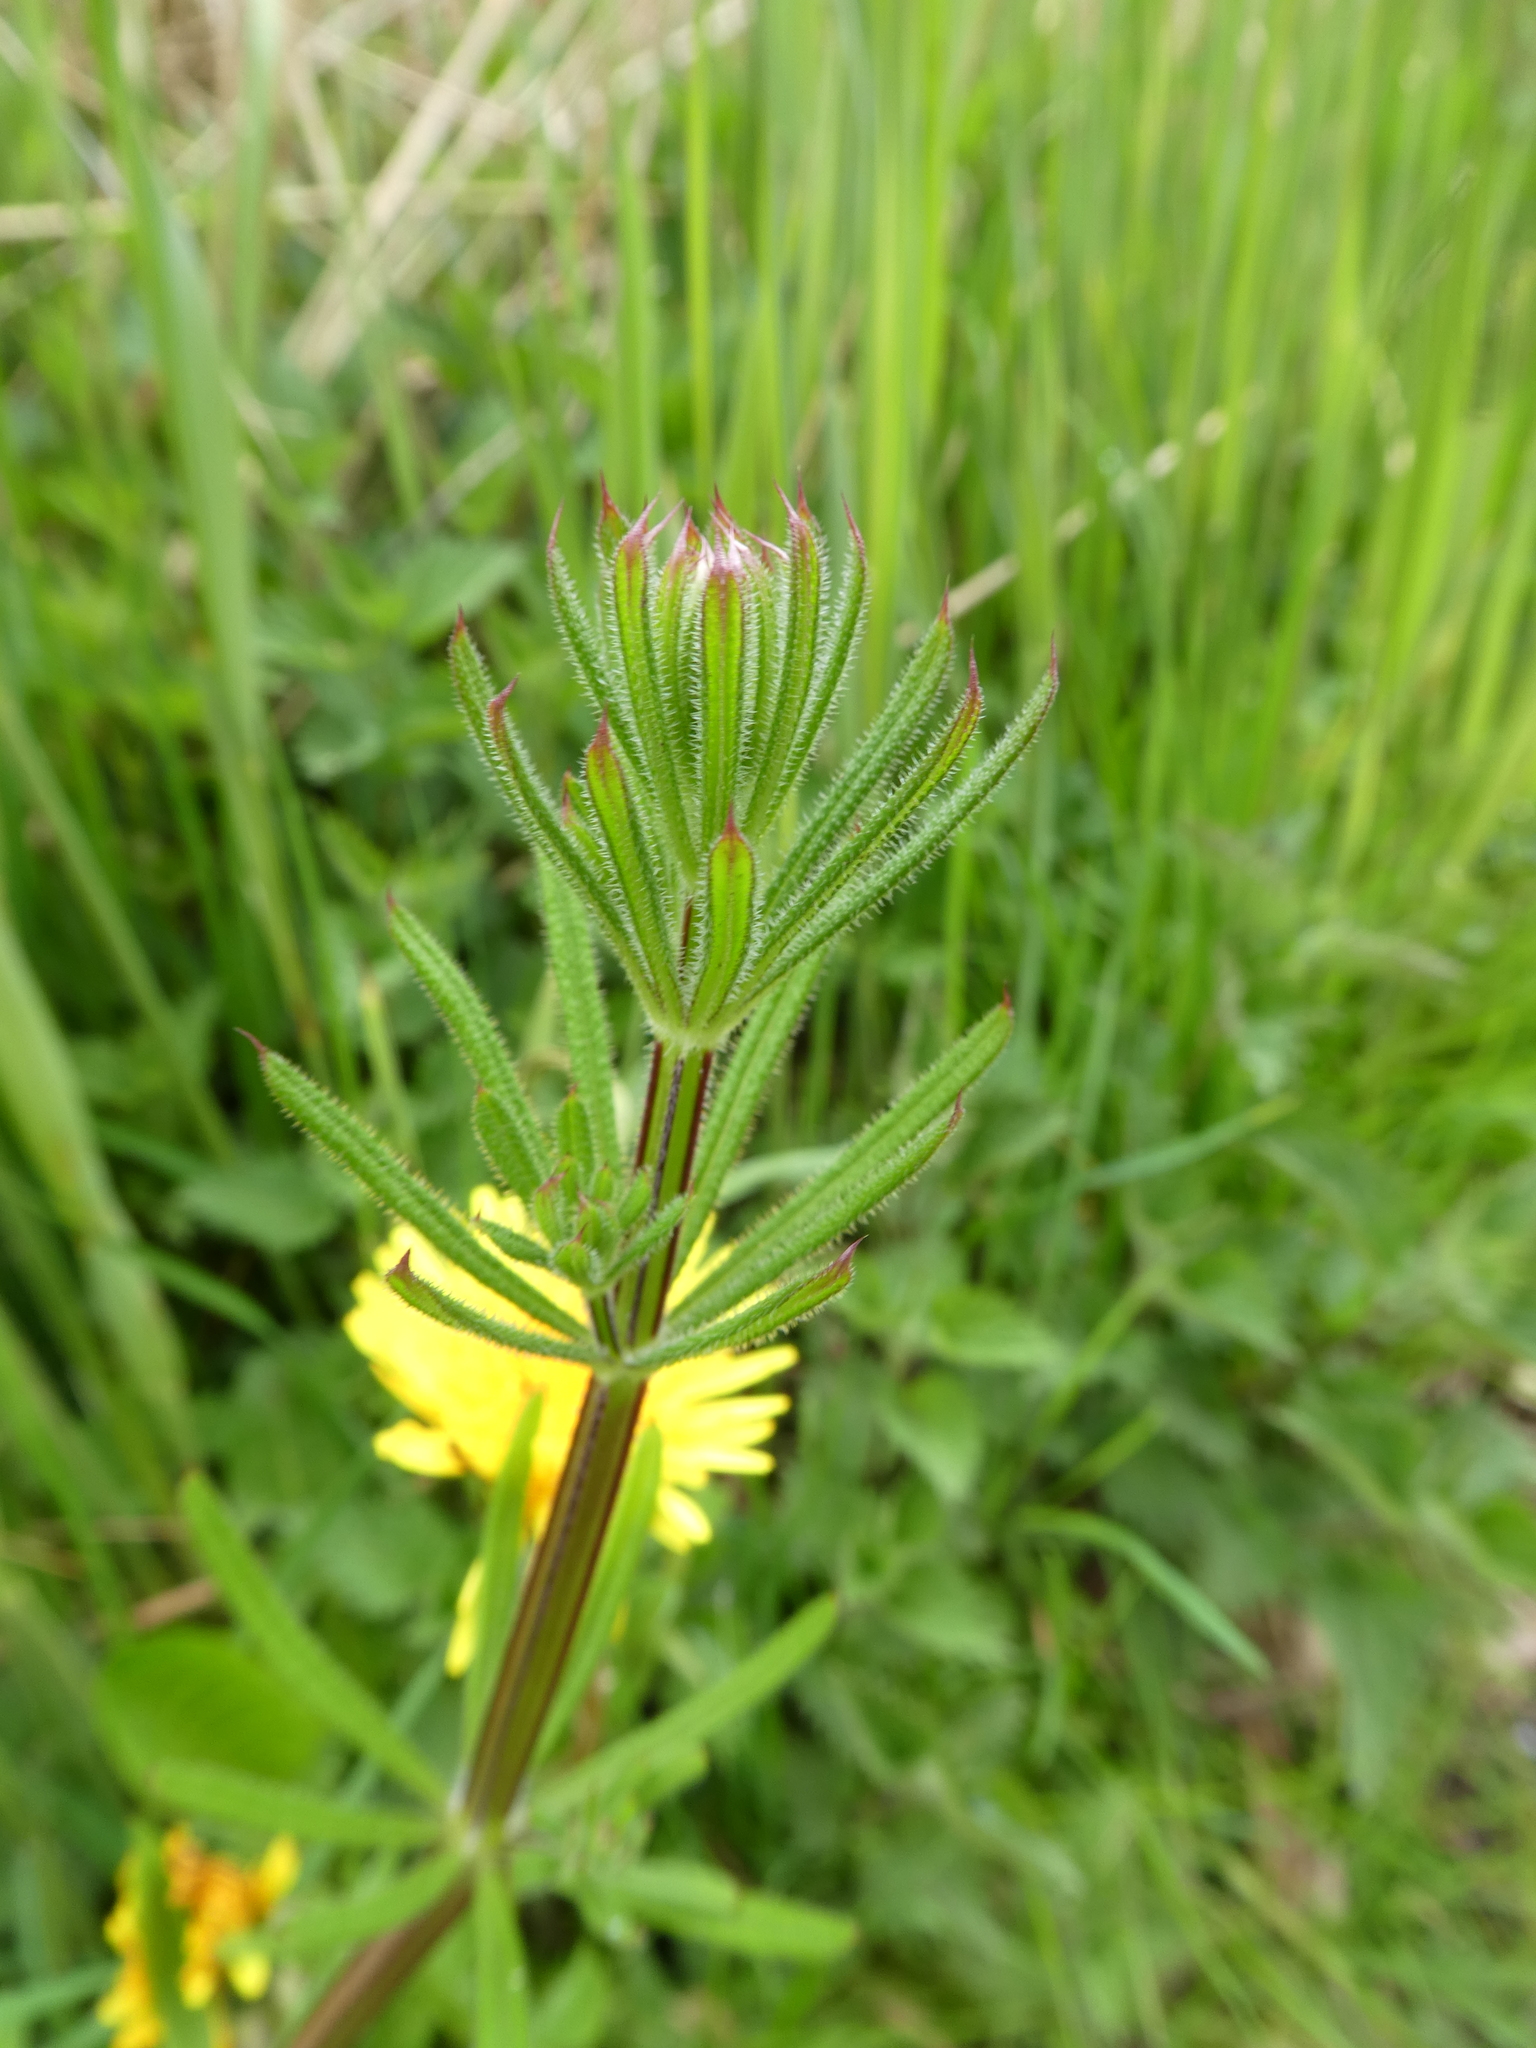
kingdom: Plantae
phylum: Tracheophyta
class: Magnoliopsida
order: Gentianales
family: Rubiaceae
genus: Galium
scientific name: Galium aparine
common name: Cleavers
